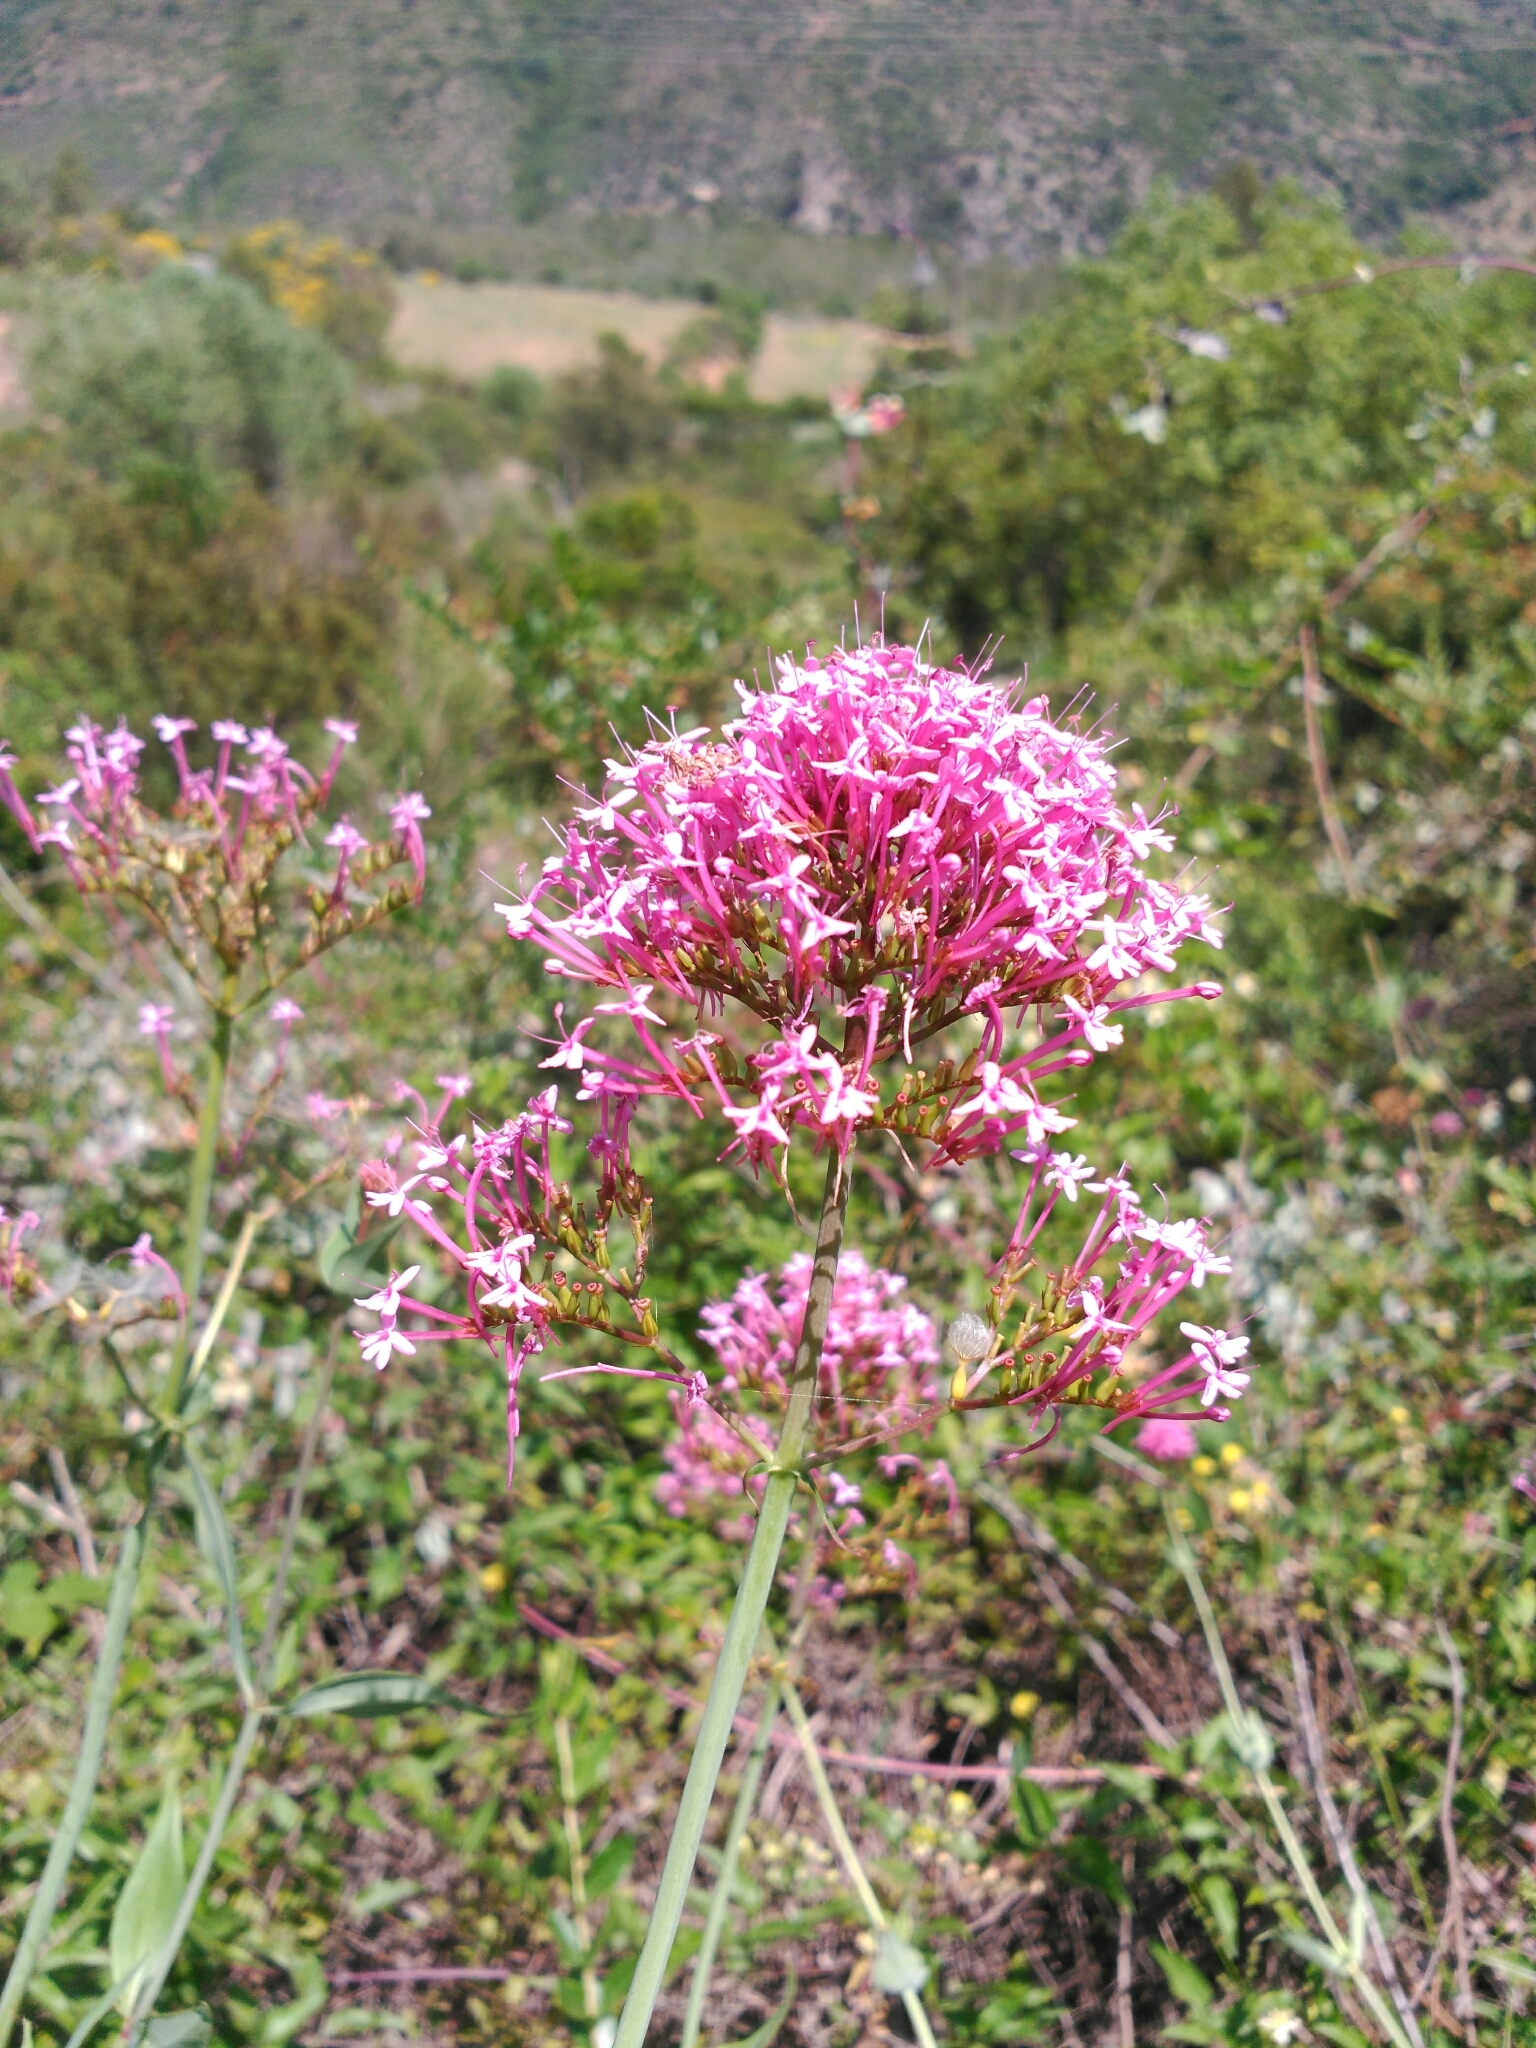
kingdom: Plantae
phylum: Tracheophyta
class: Magnoliopsida
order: Dipsacales
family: Caprifoliaceae
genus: Centranthus
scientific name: Centranthus ruber
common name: Red valerian
